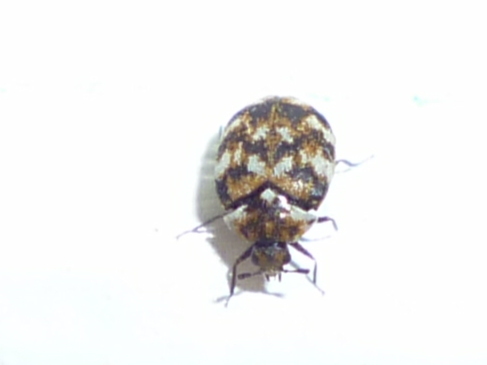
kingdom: Animalia
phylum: Arthropoda
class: Insecta
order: Coleoptera
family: Dermestidae
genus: Anthrenus
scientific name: Anthrenus verbasci
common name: Varied carpet beetle
